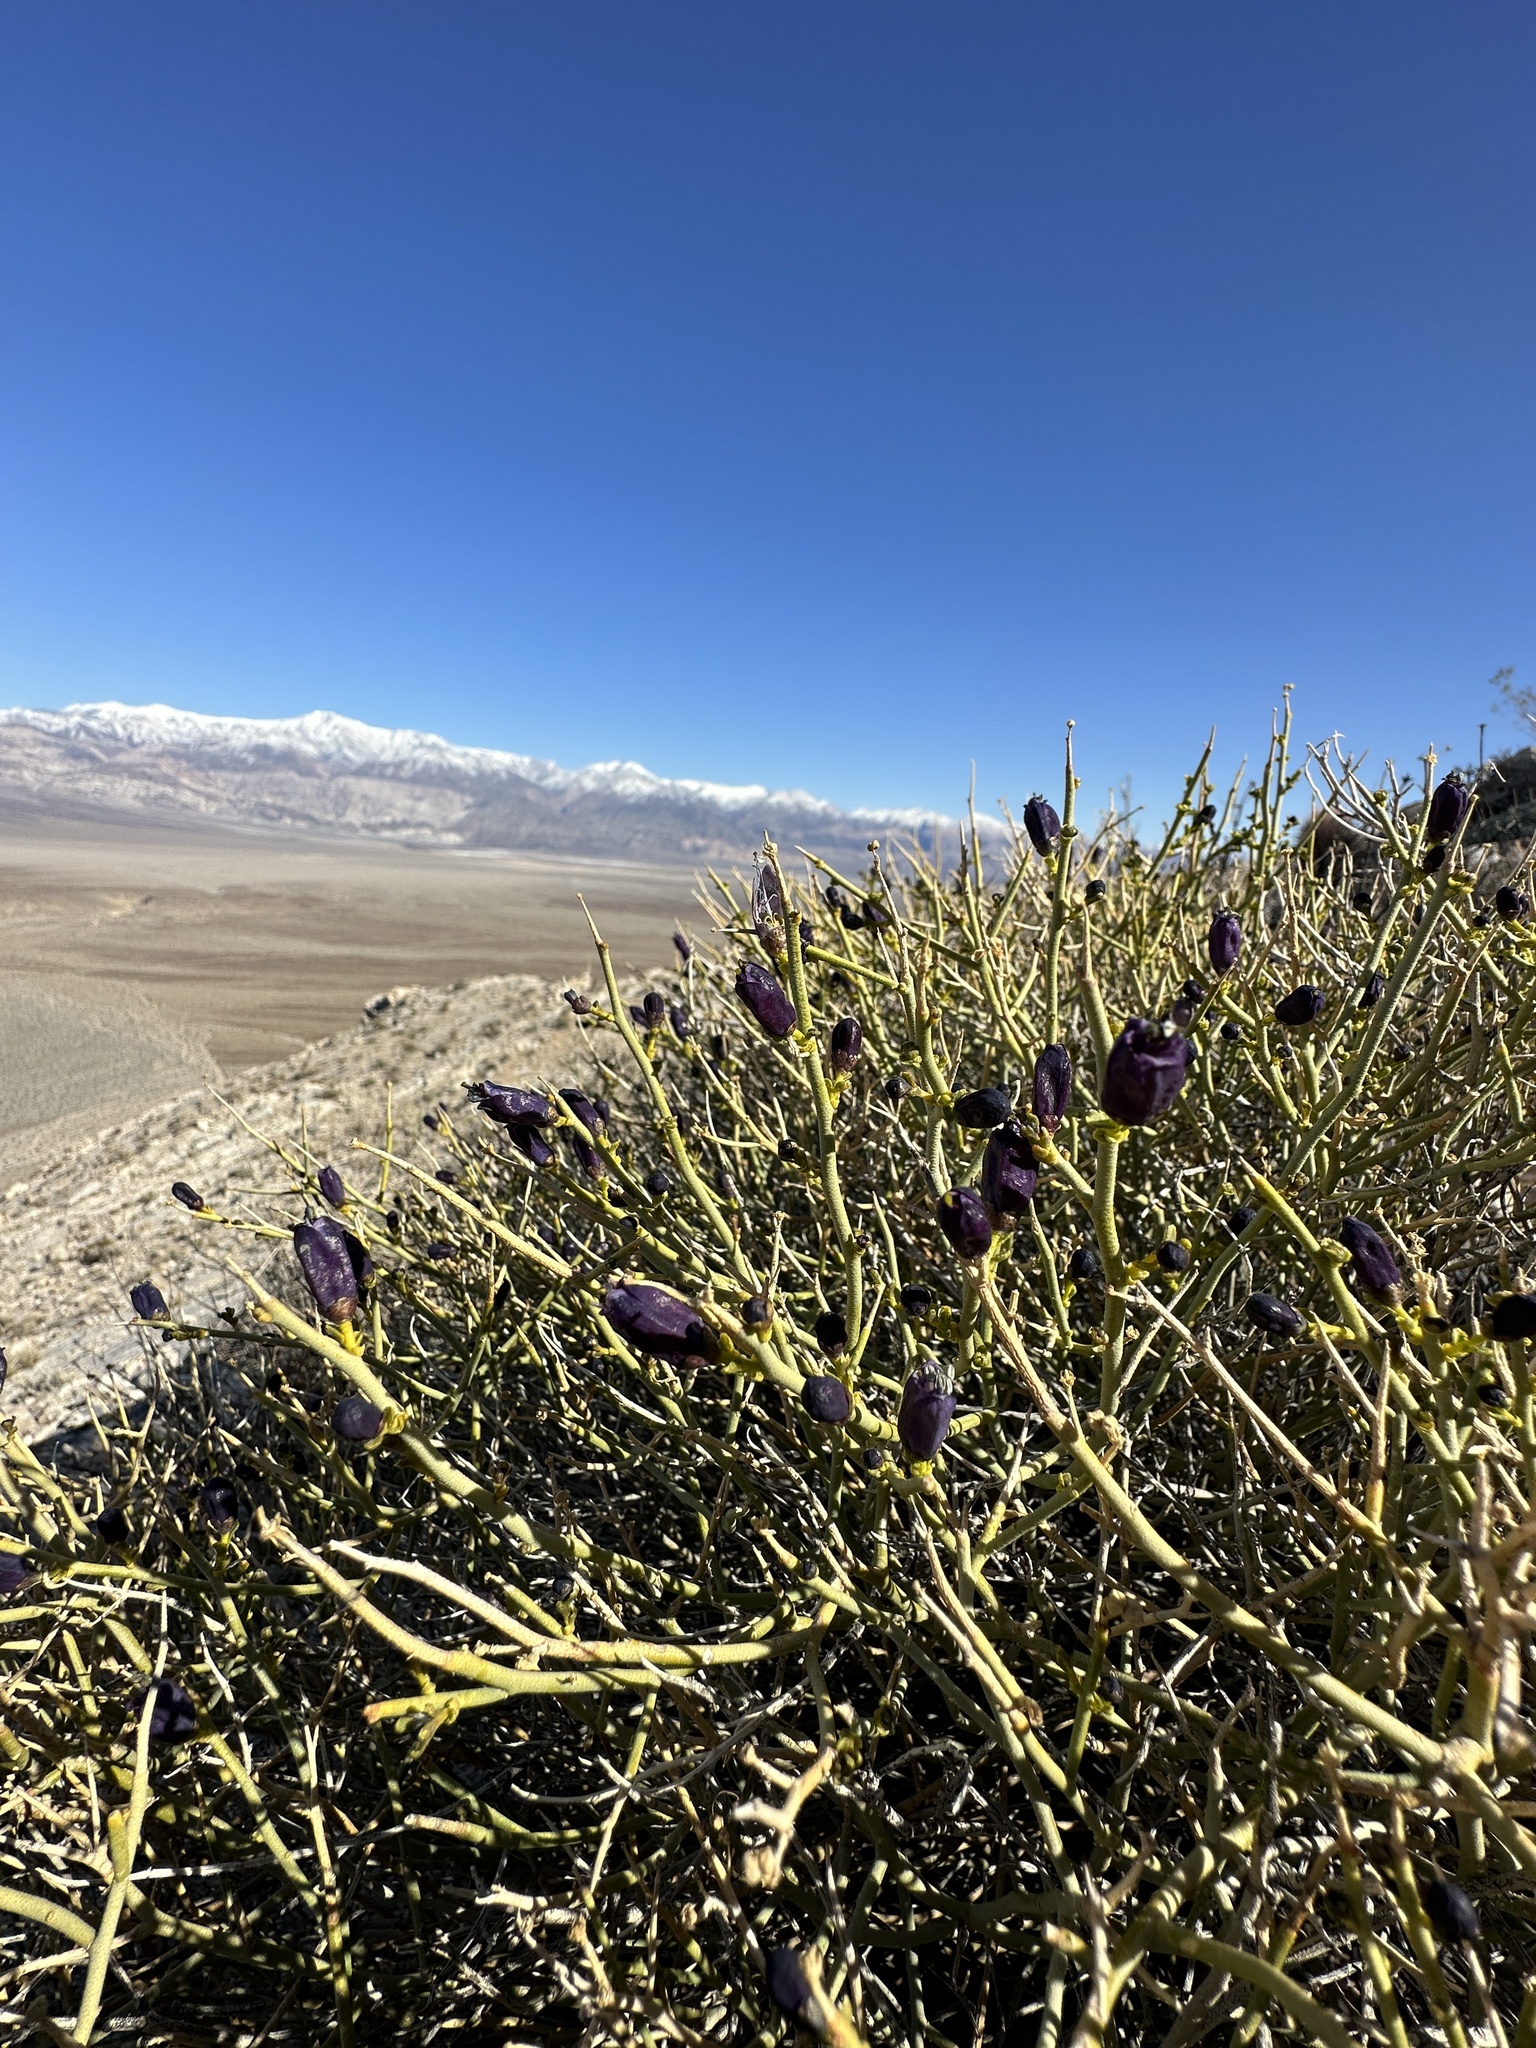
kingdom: Plantae
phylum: Tracheophyta
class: Magnoliopsida
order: Sapindales
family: Rutaceae
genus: Thamnosma
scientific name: Thamnosma montana
